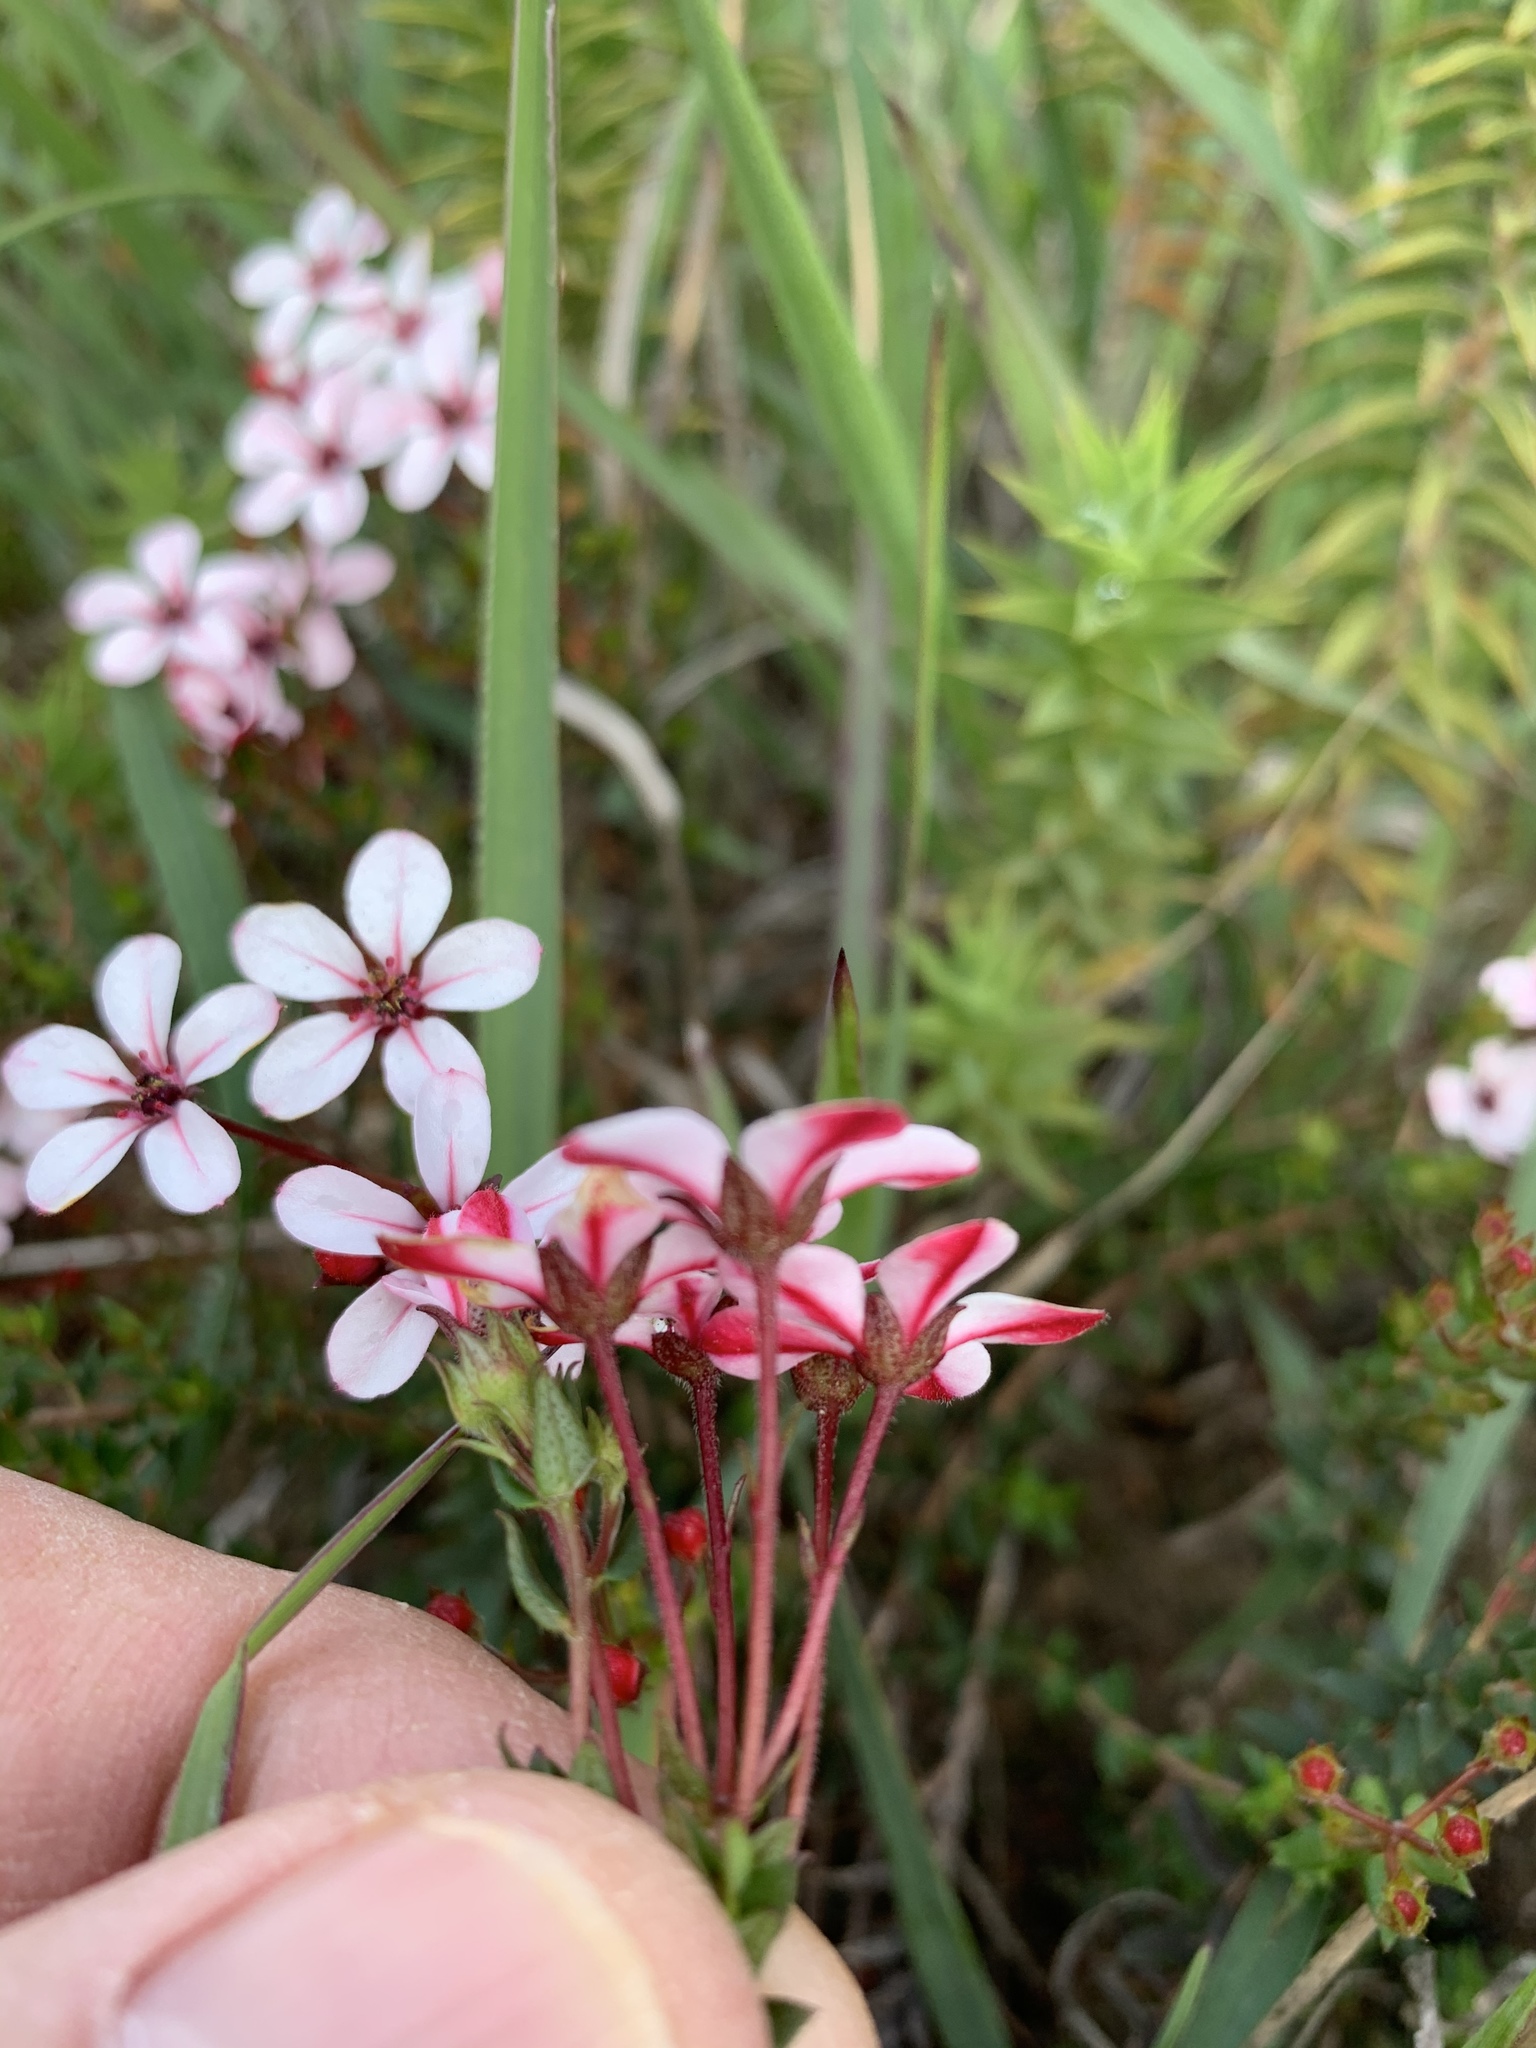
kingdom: Plantae
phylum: Tracheophyta
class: Magnoliopsida
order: Sapindales
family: Rutaceae
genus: Adenandra
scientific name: Adenandra marginata
